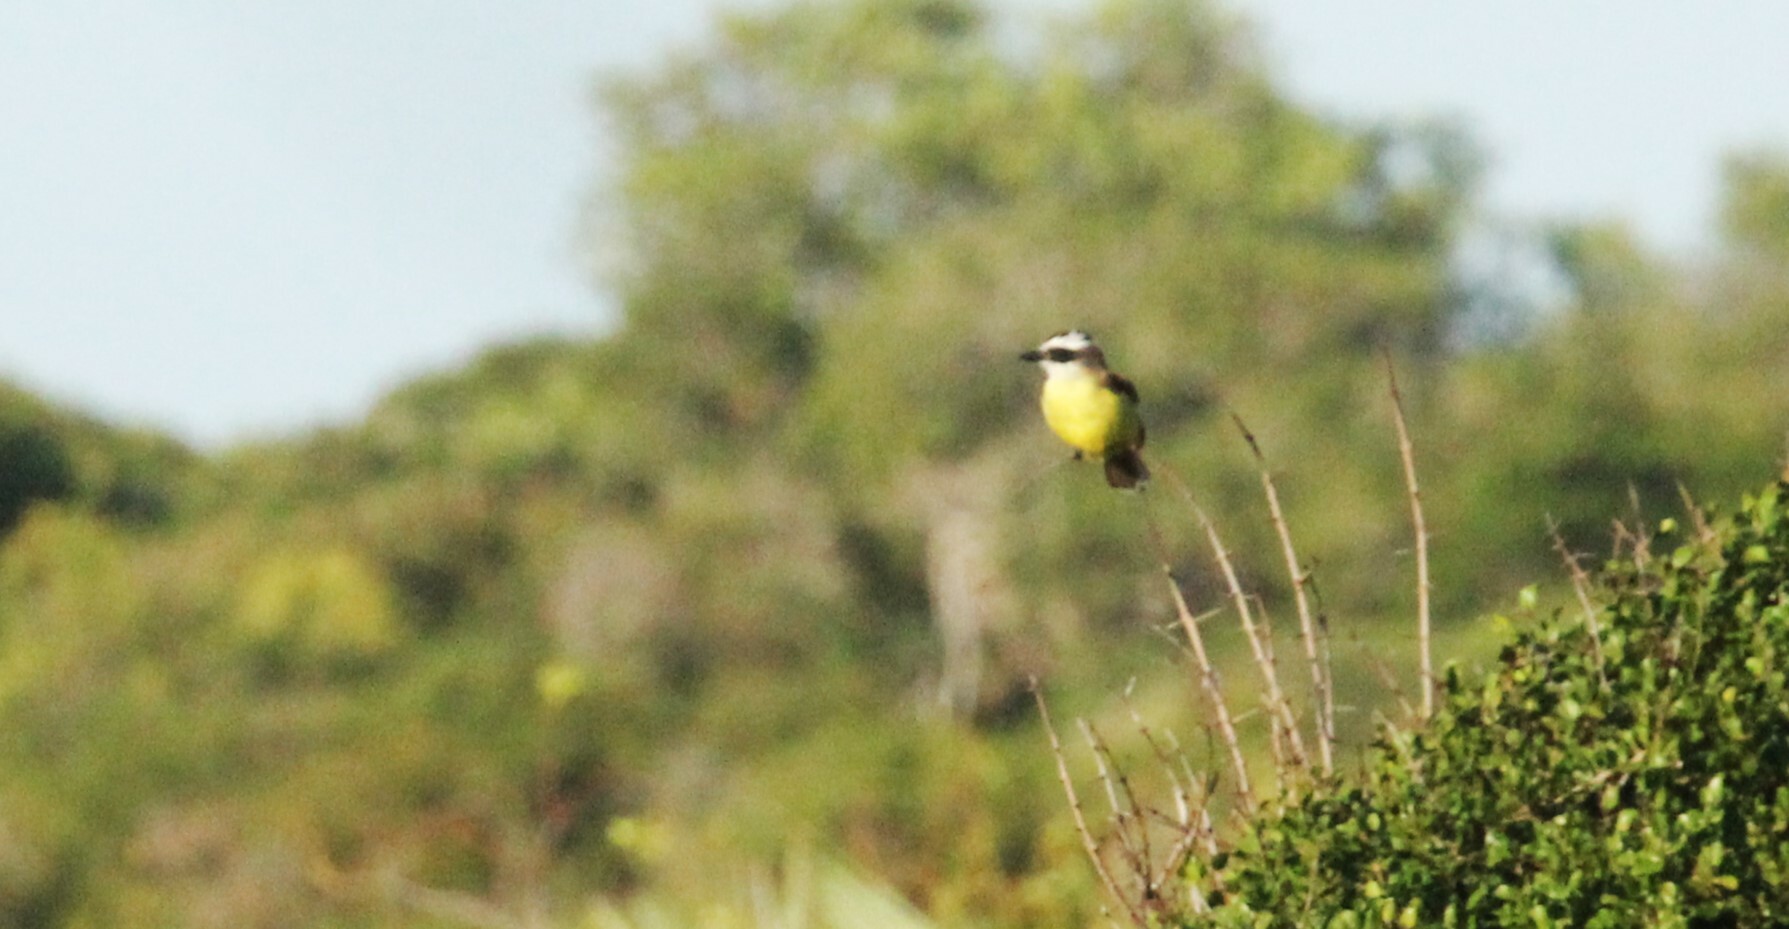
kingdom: Animalia
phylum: Chordata
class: Aves
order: Passeriformes
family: Tyrannidae
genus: Pitangus
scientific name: Pitangus sulphuratus
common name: Great kiskadee
